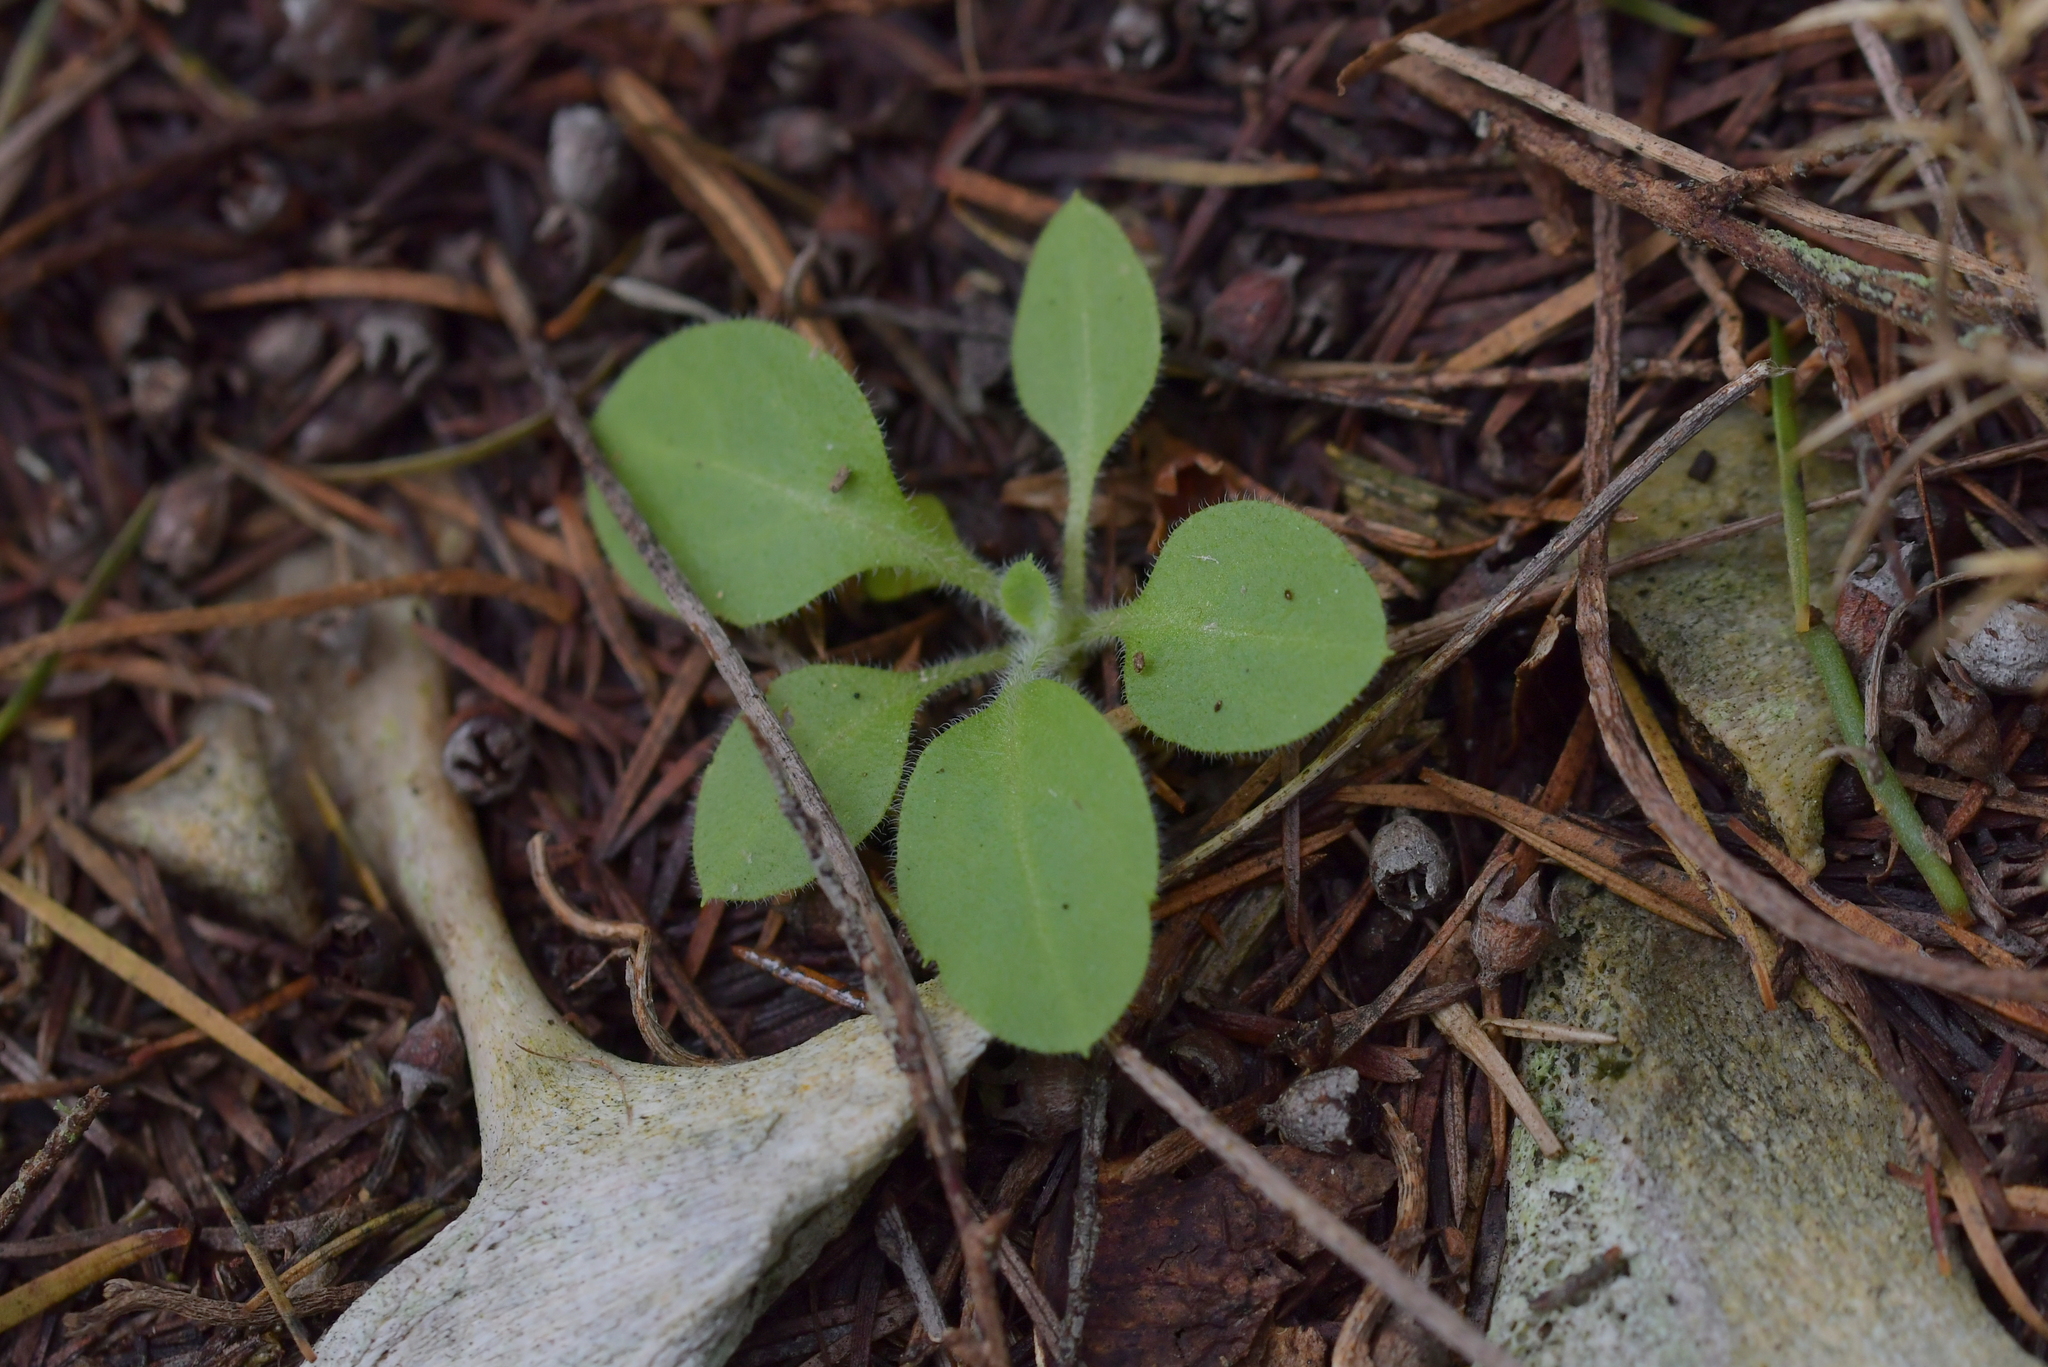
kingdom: Plantae
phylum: Tracheophyta
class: Magnoliopsida
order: Solanales
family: Solanaceae
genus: Solanum
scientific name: Solanum mauritianum
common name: Earleaf nightshade
